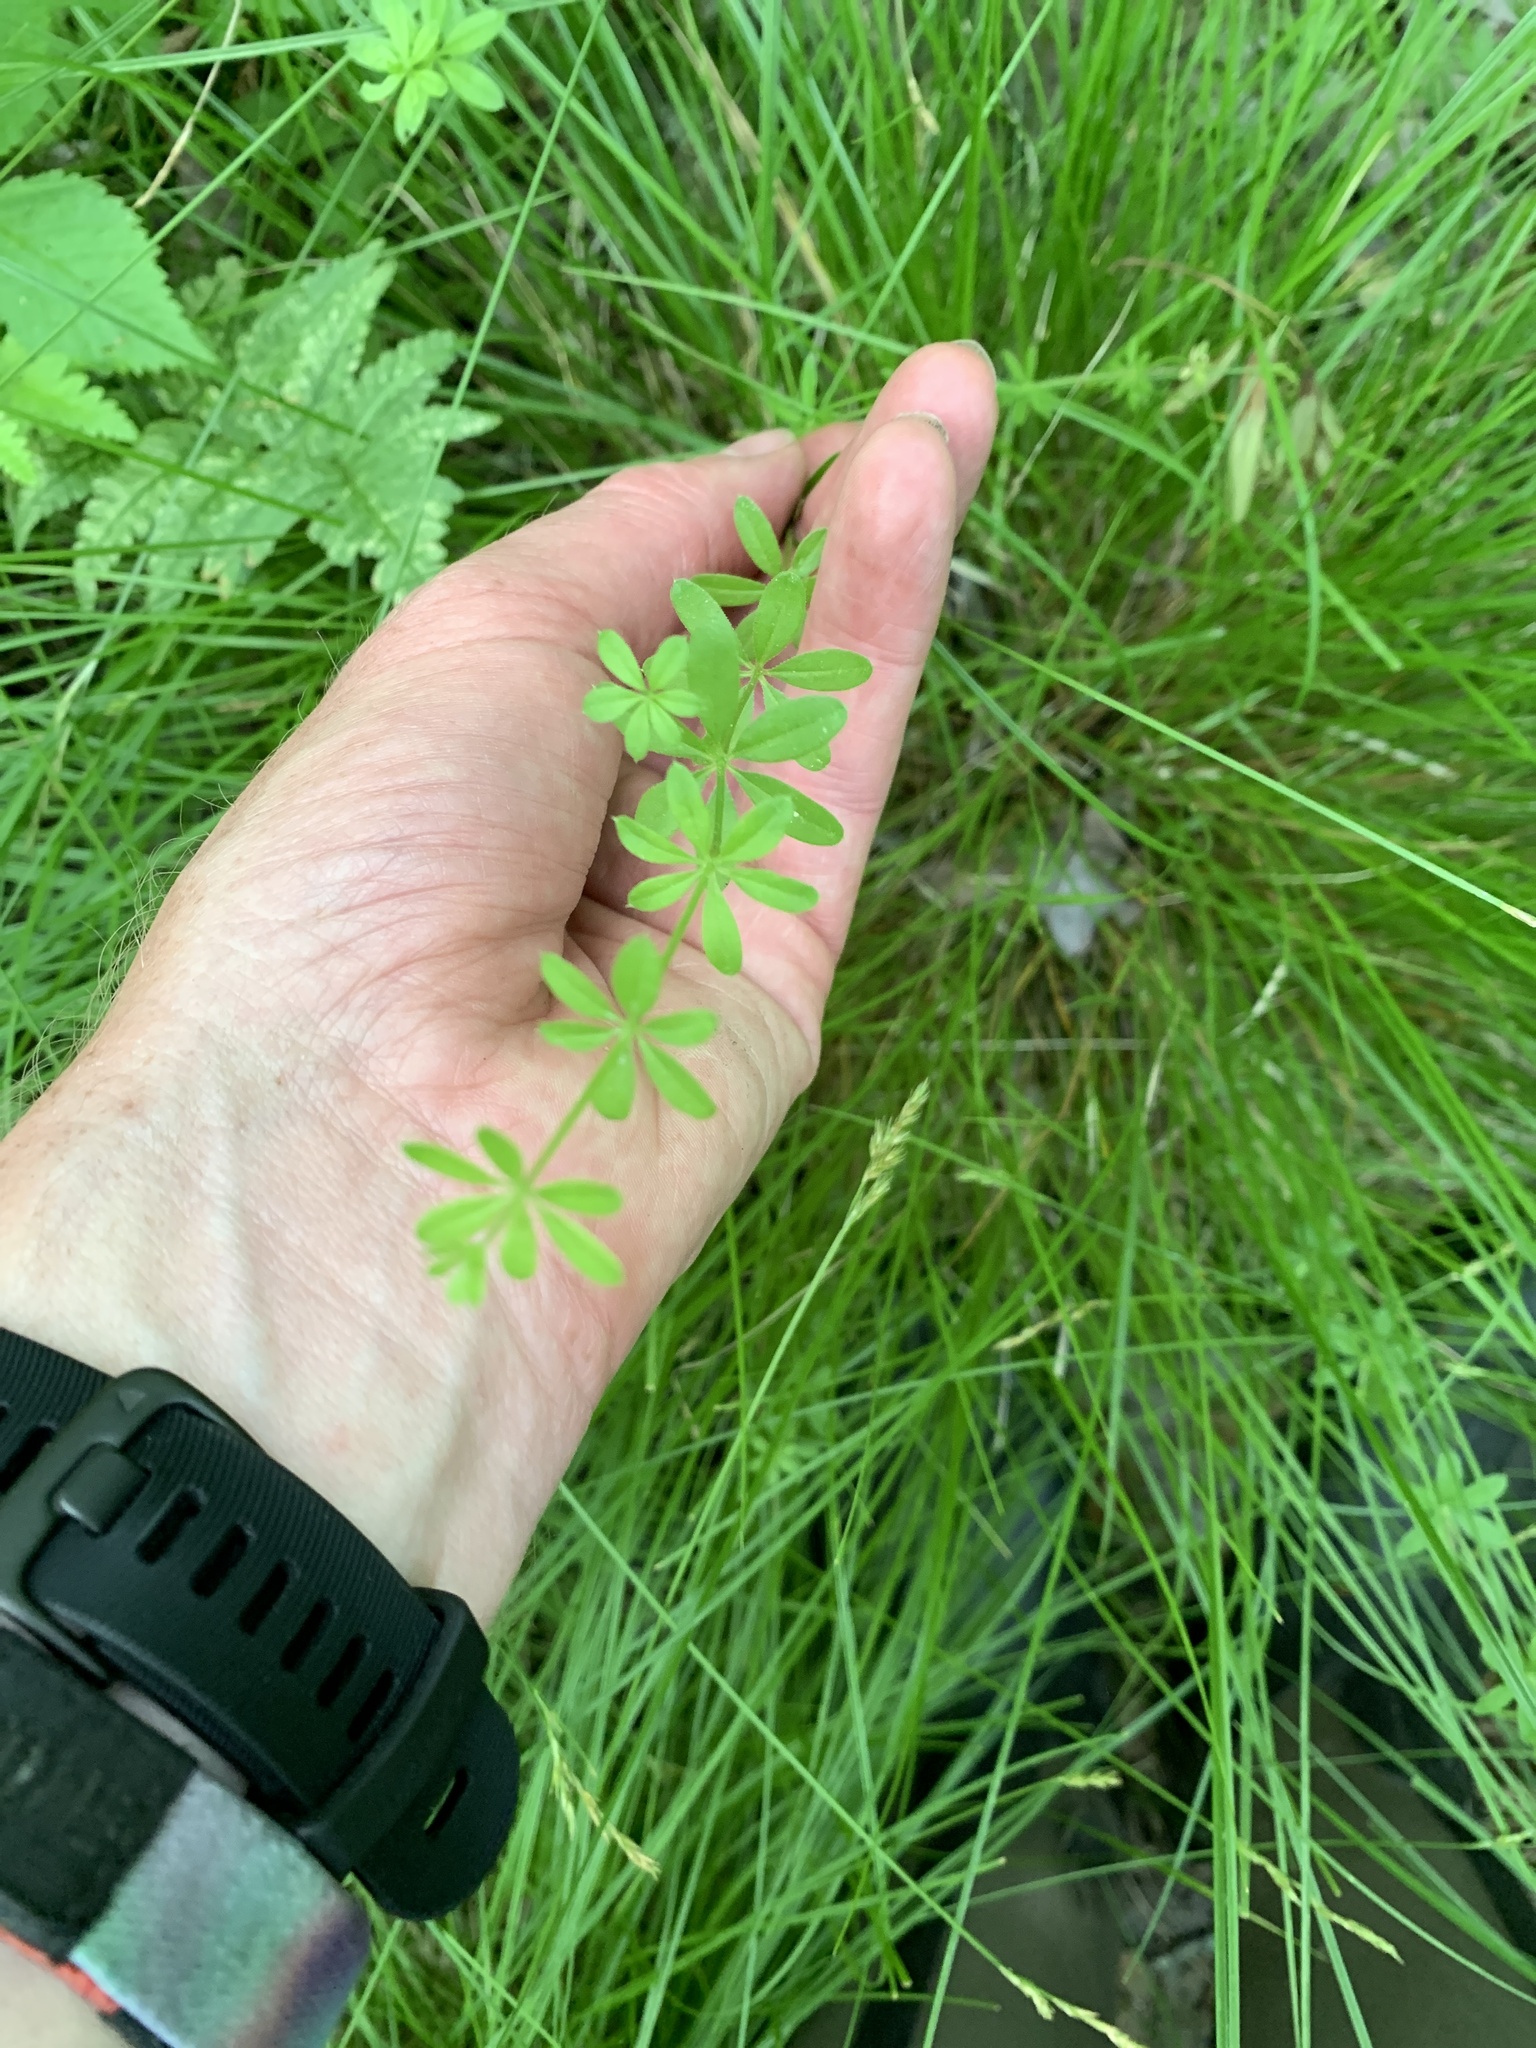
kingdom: Plantae
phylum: Tracheophyta
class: Magnoliopsida
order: Gentianales
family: Rubiaceae
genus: Galium
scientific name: Galium asprellum
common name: Rough bedstraw
